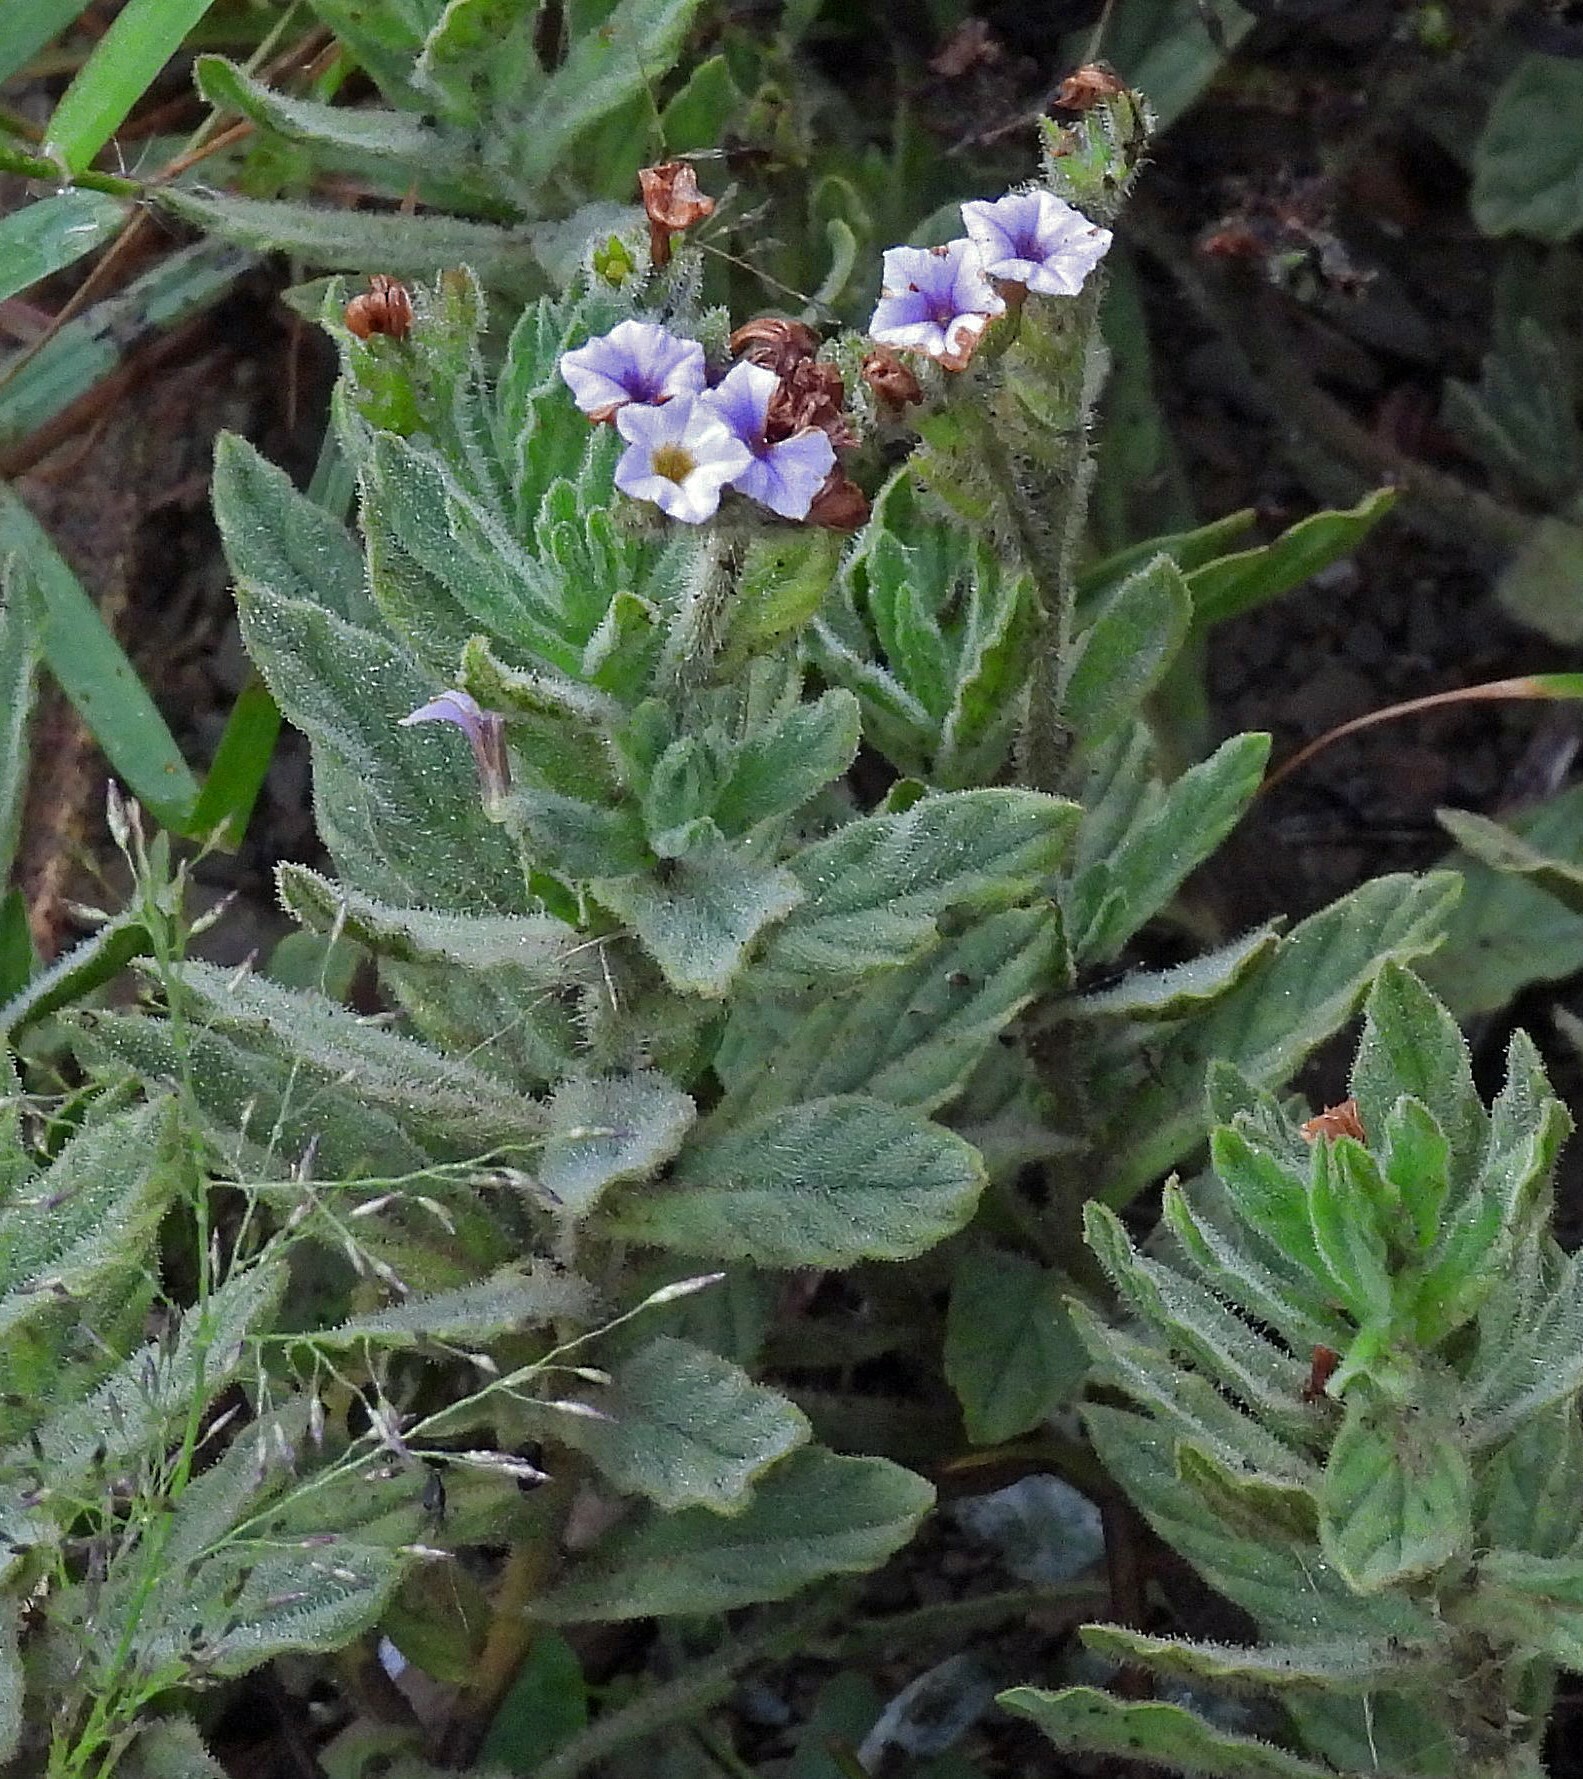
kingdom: Plantae
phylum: Tracheophyta
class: Magnoliopsida
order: Boraginales
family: Heliotropiaceae
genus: Heliotropium
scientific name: Heliotropium amplexicaule
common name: Clasping heliotrope
